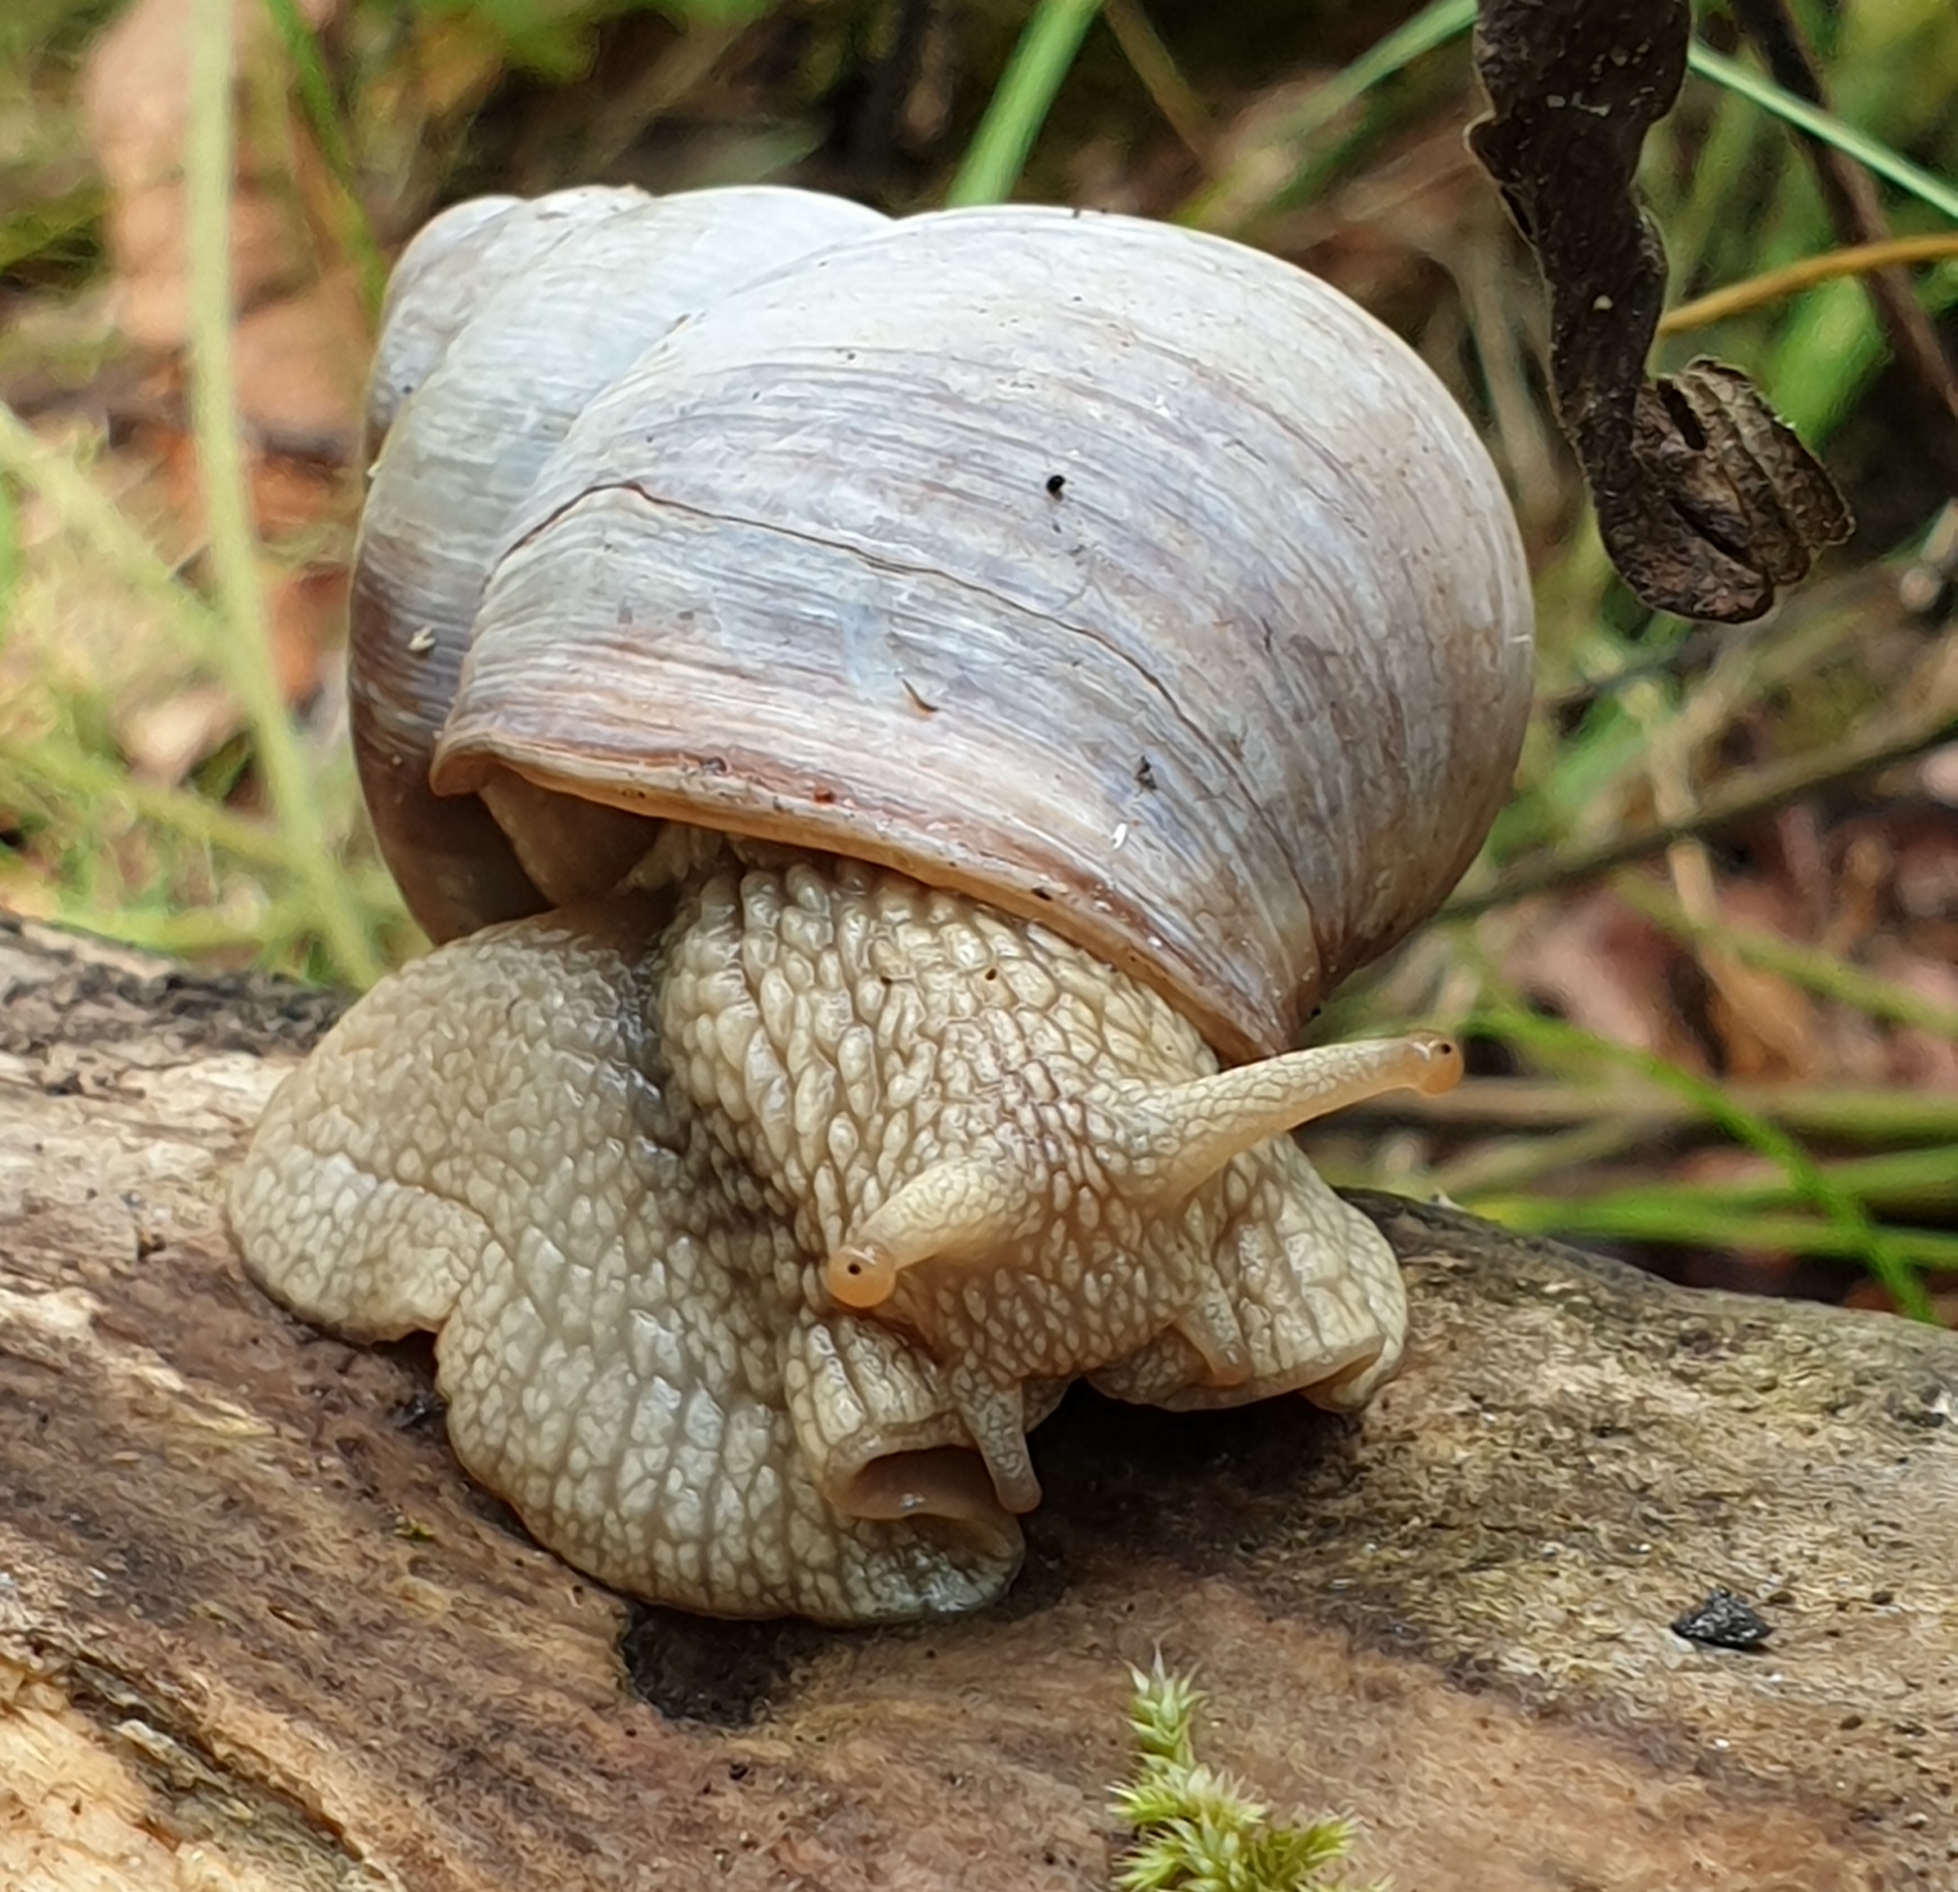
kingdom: Animalia
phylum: Mollusca
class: Gastropoda
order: Stylommatophora
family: Helicidae
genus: Helix
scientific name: Helix pomatia
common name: Roman snail
